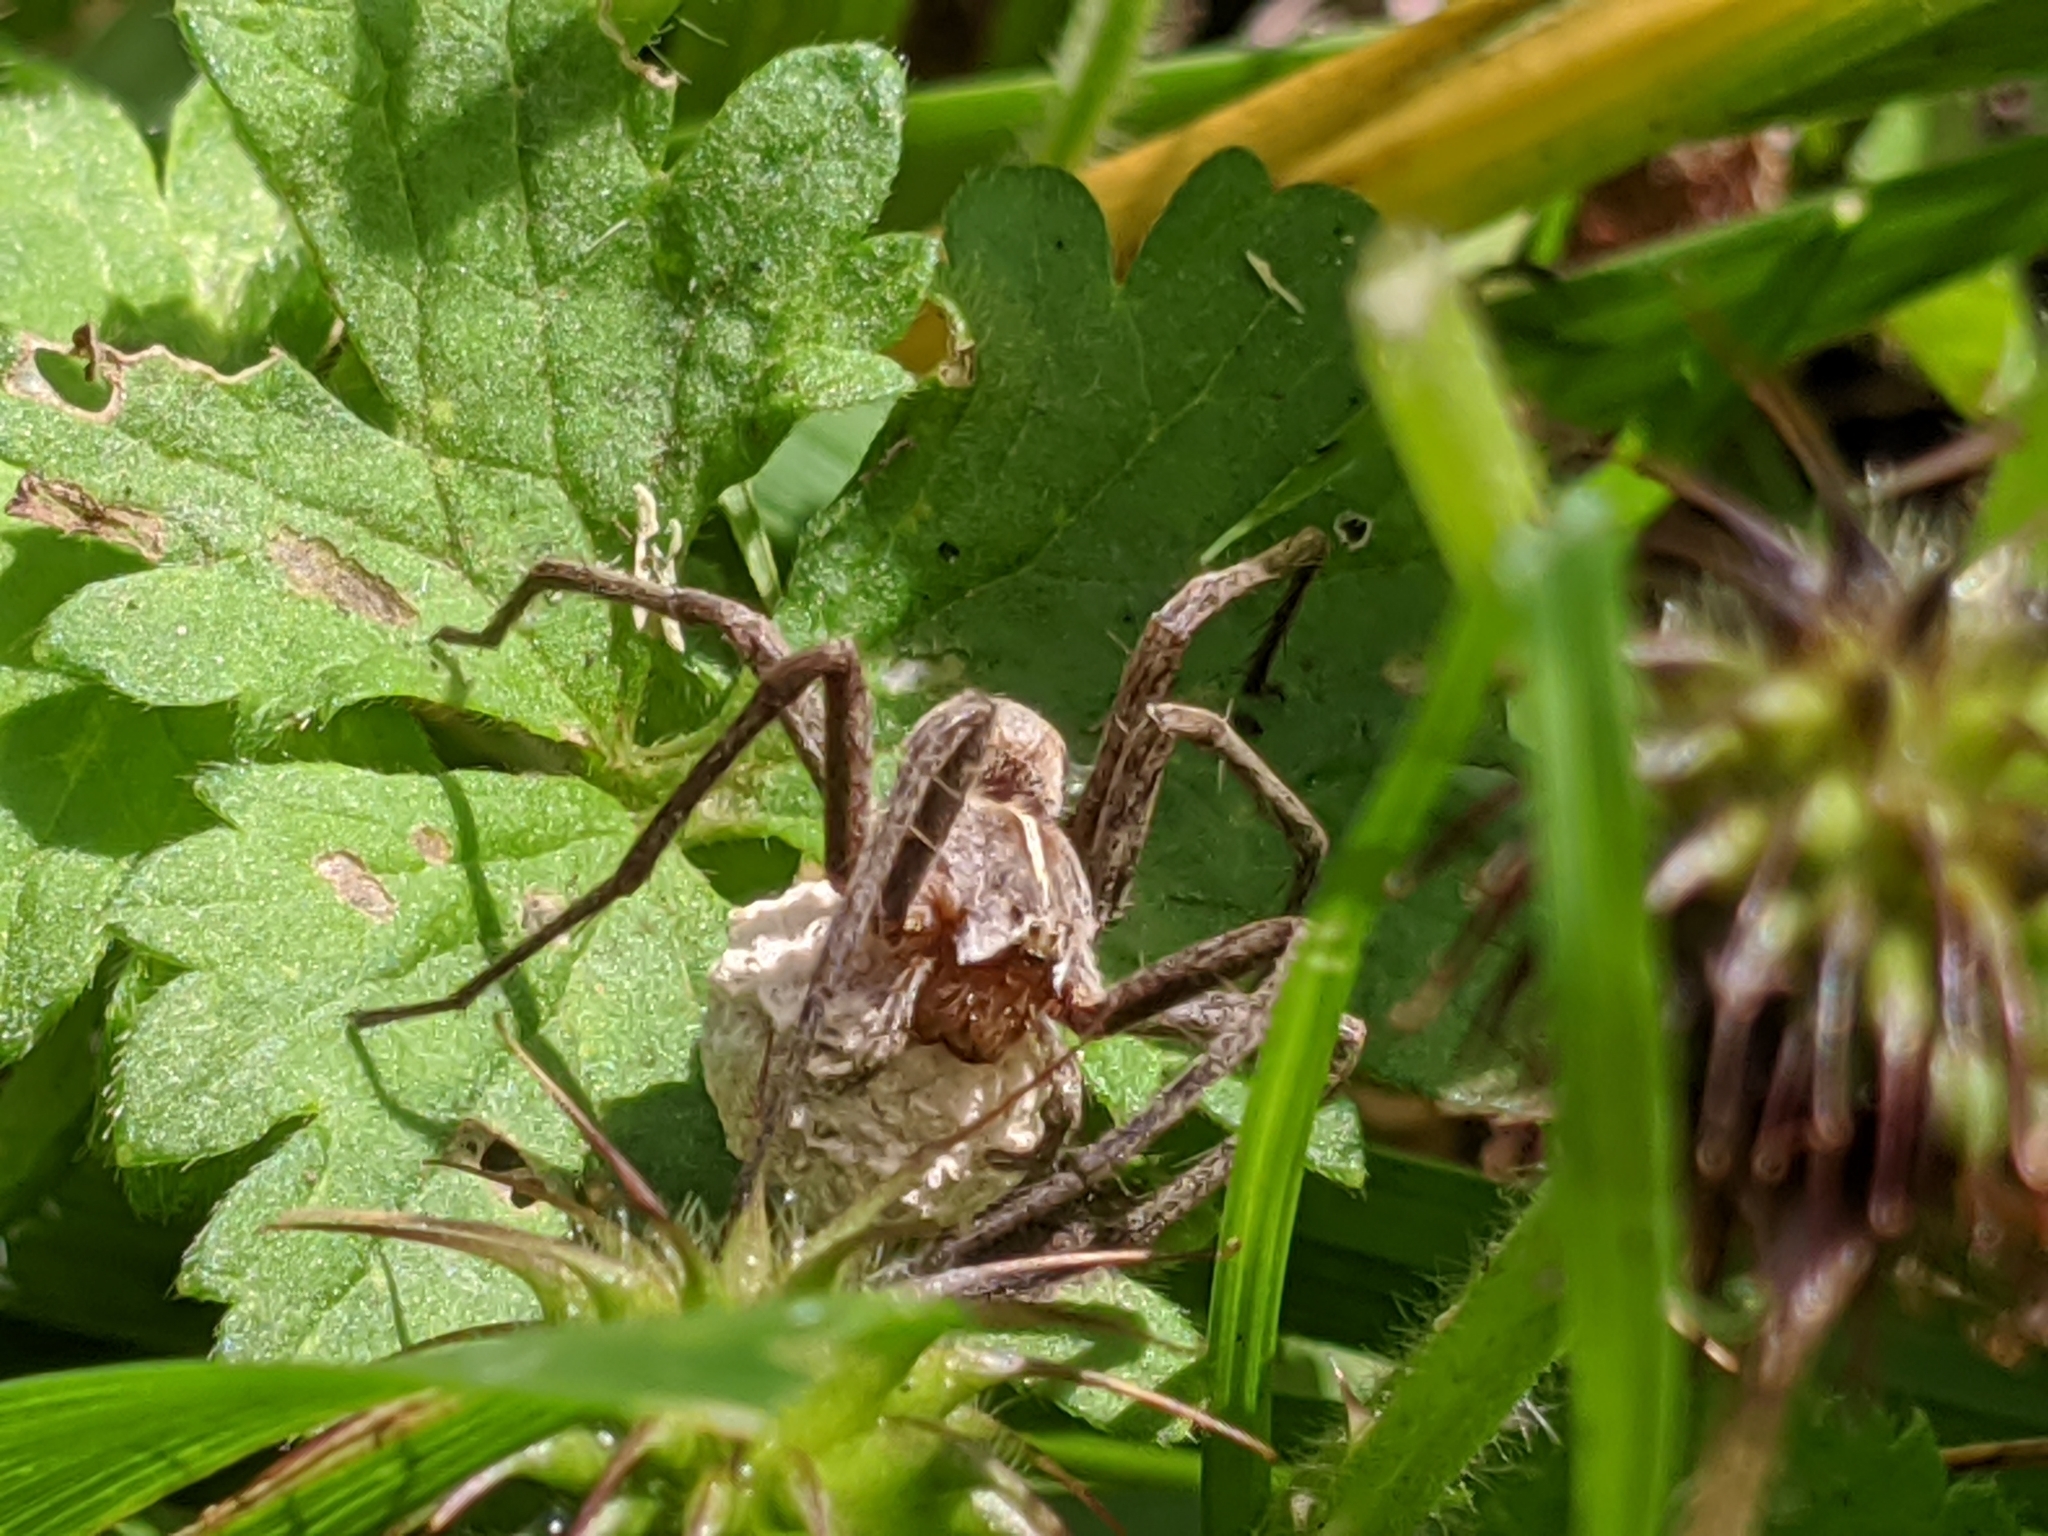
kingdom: Animalia
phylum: Arthropoda
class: Arachnida
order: Araneae
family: Pisauridae
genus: Pisaura
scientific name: Pisaura mirabilis
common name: Tent spider
